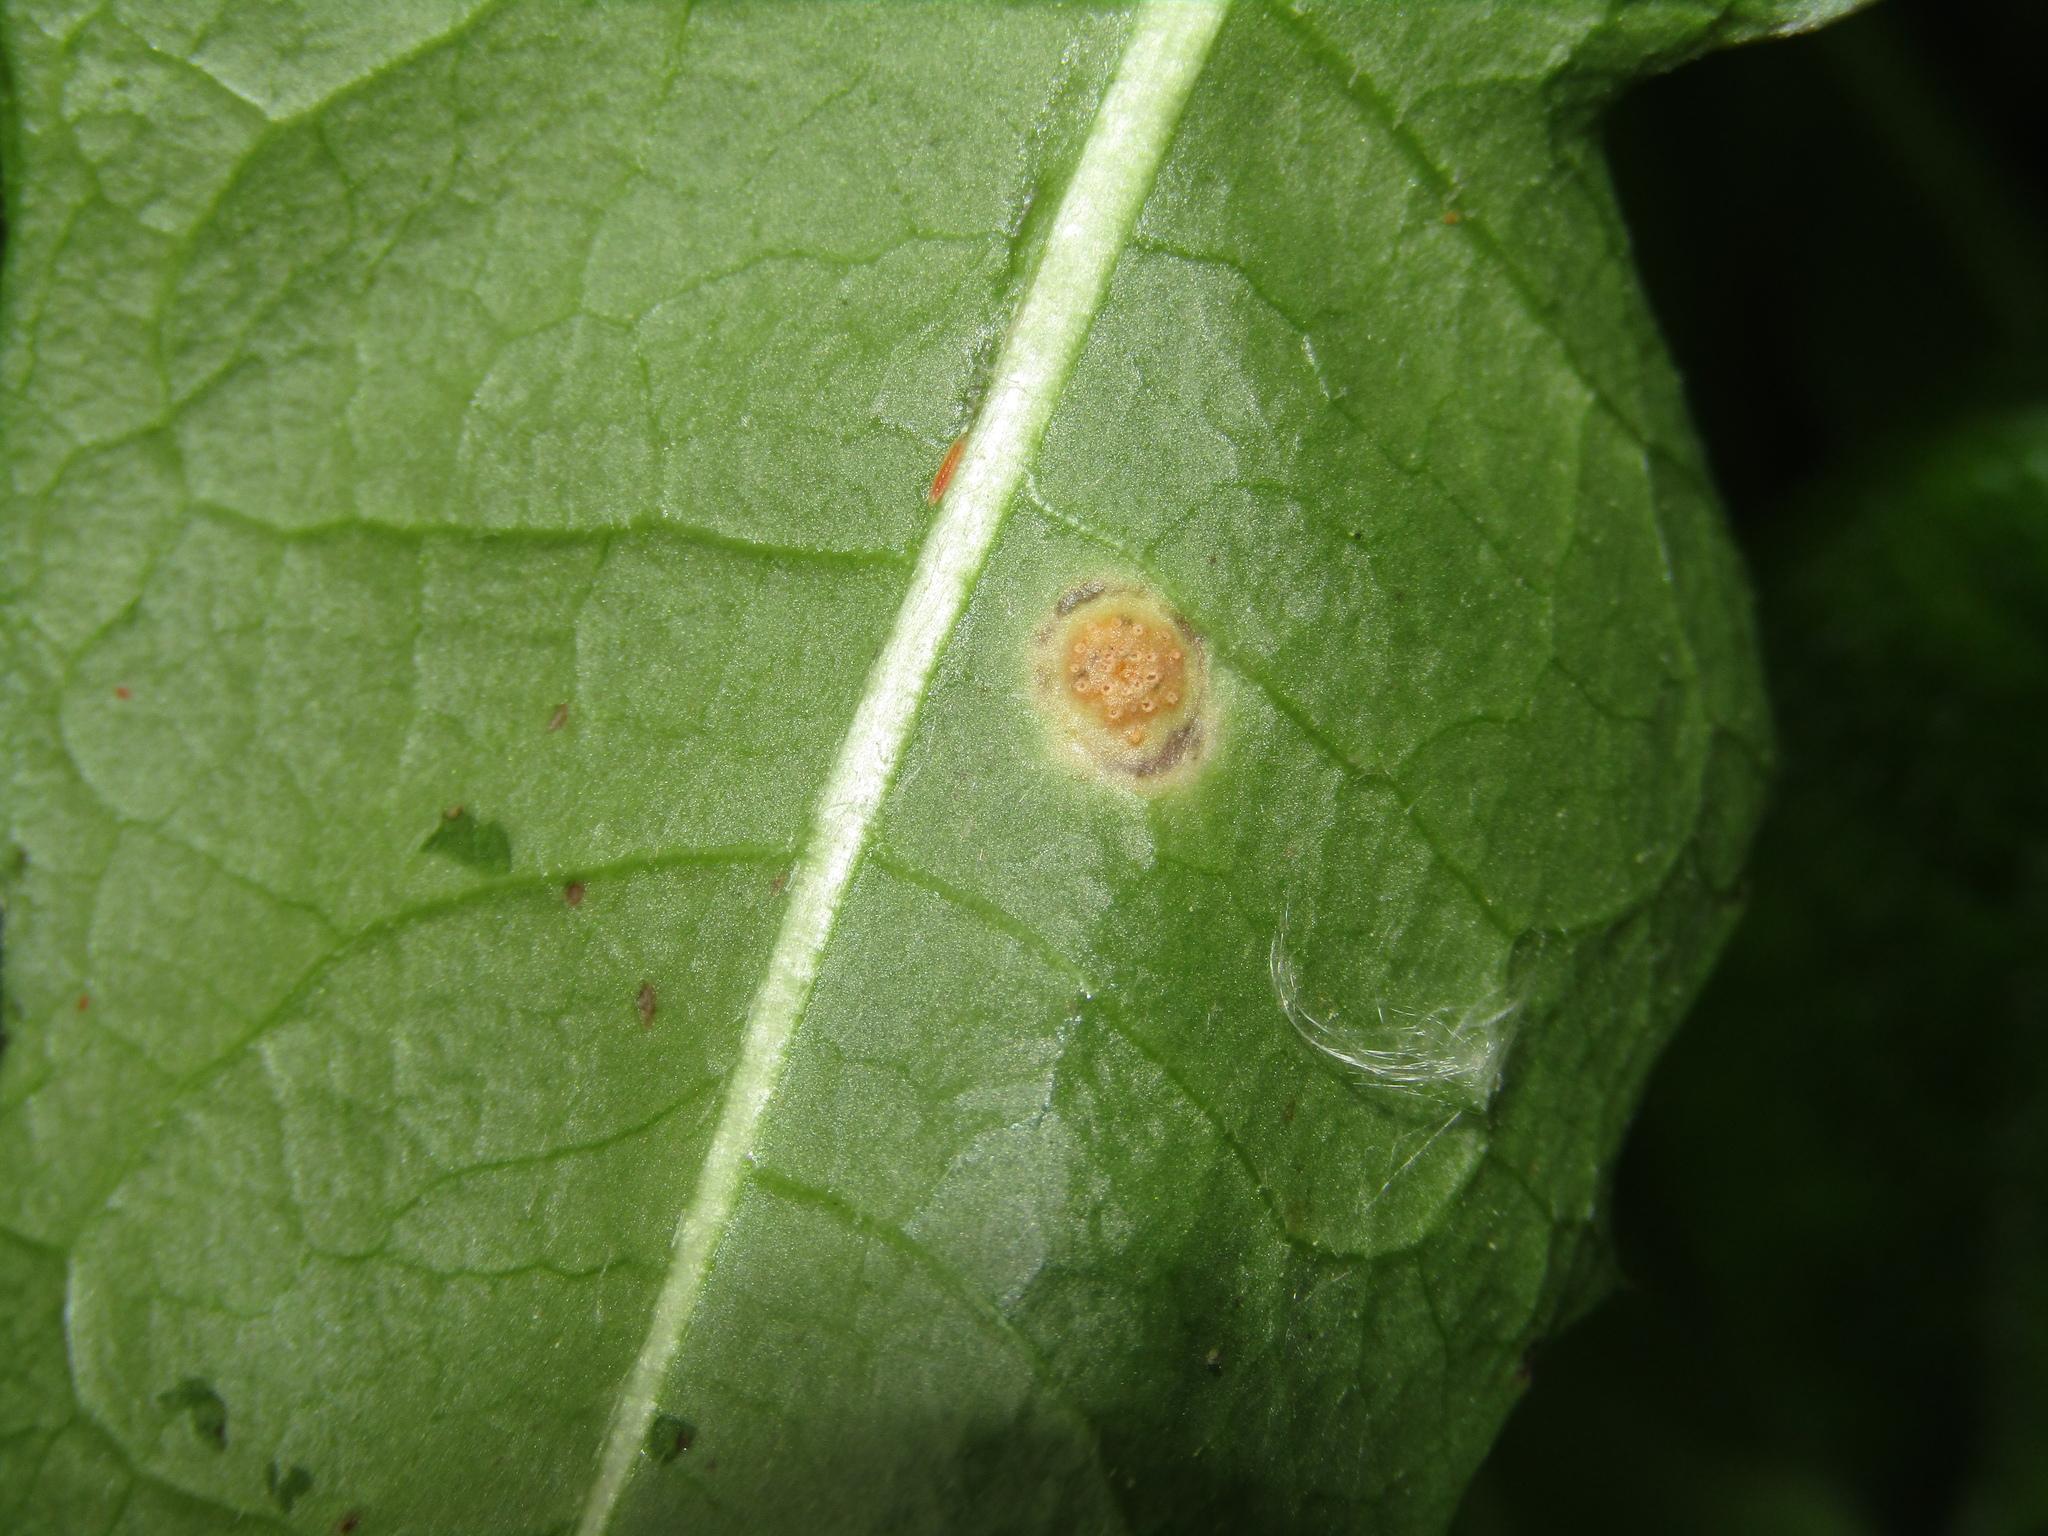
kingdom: Fungi
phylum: Basidiomycota
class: Pucciniomycetes
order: Pucciniales
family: Pucciniaceae
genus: Puccinia
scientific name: Puccinia dioicae
